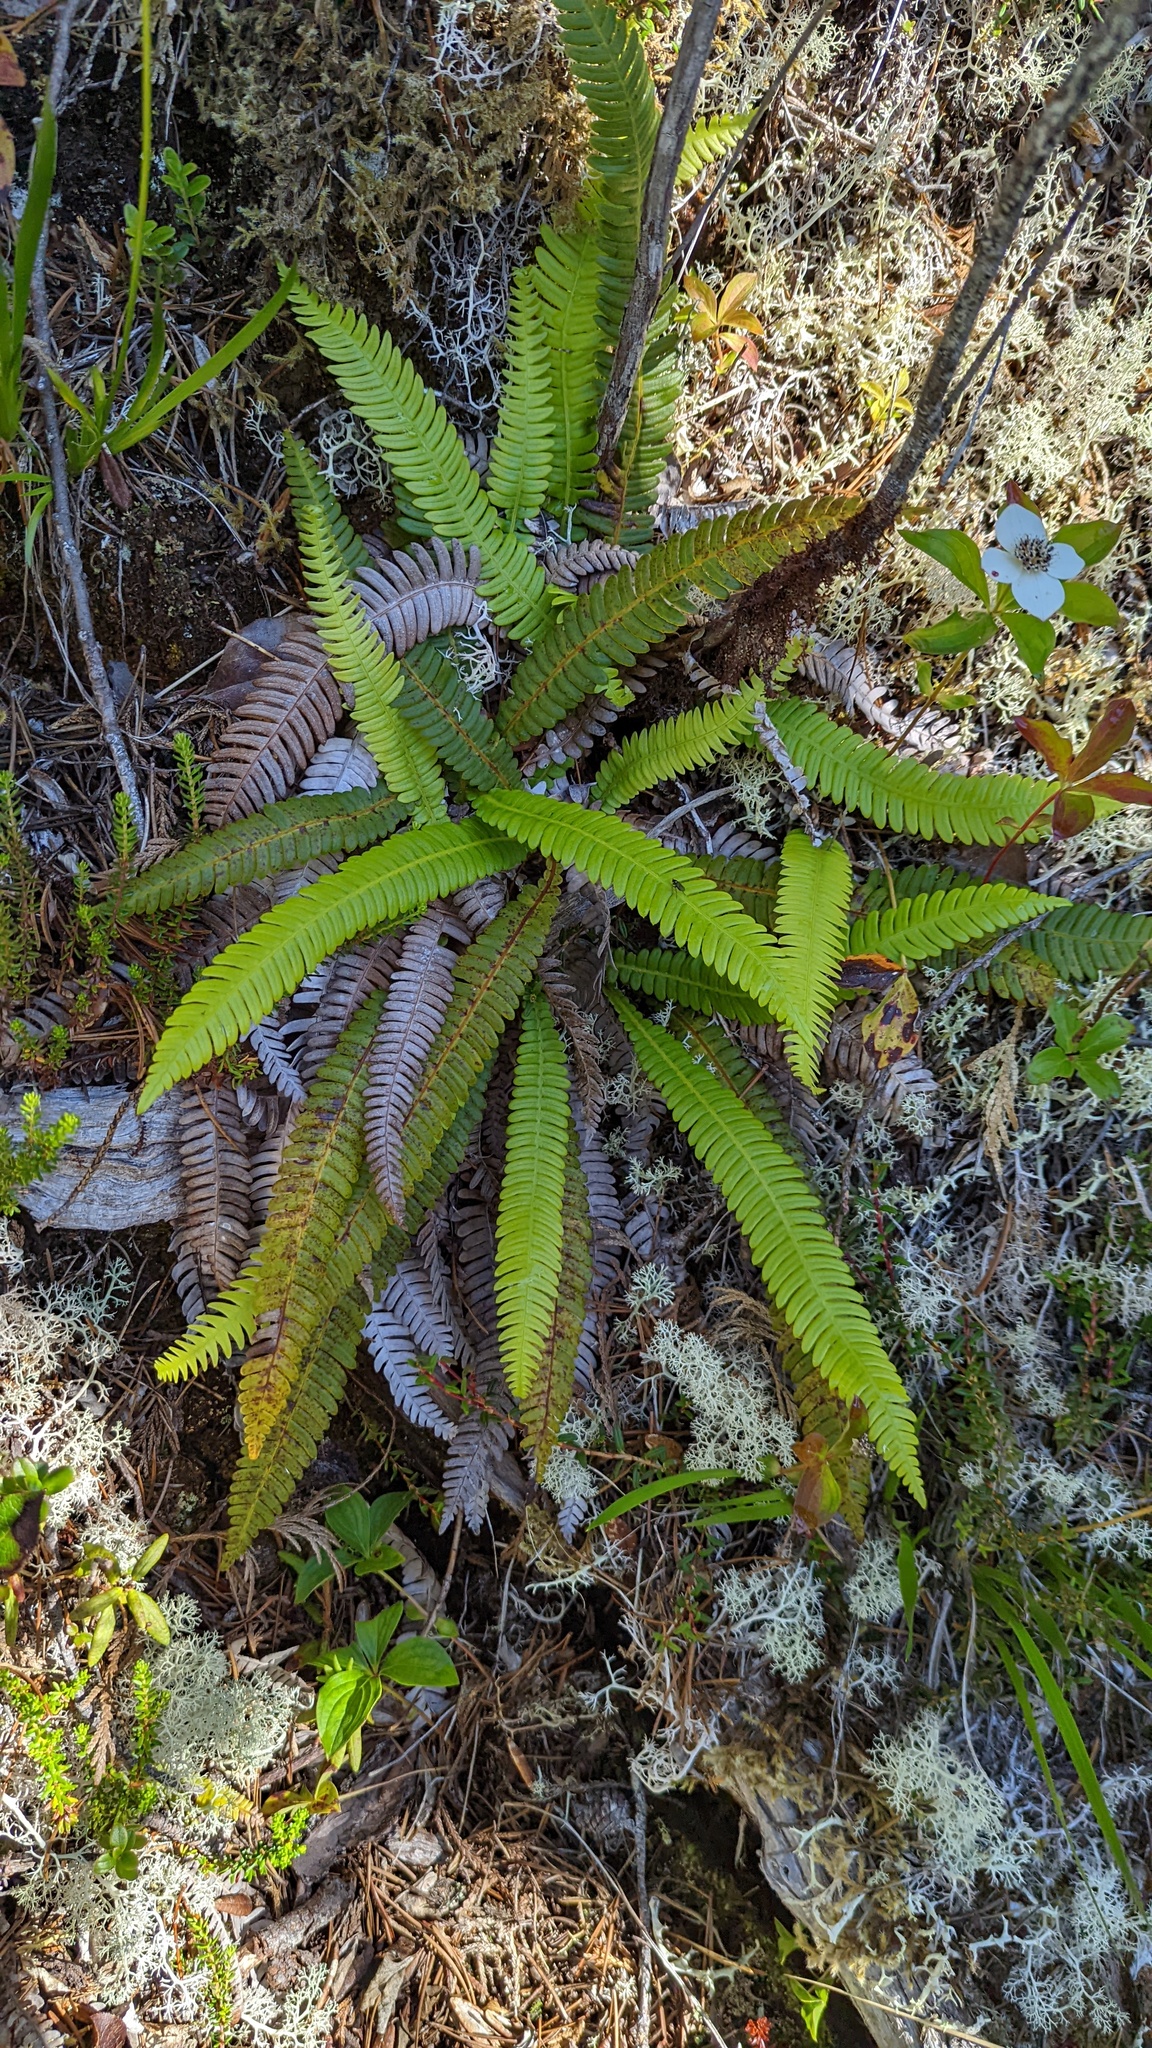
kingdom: Plantae
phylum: Tracheophyta
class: Polypodiopsida
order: Polypodiales
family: Blechnaceae
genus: Struthiopteris
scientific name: Struthiopteris spicant
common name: Deer fern
